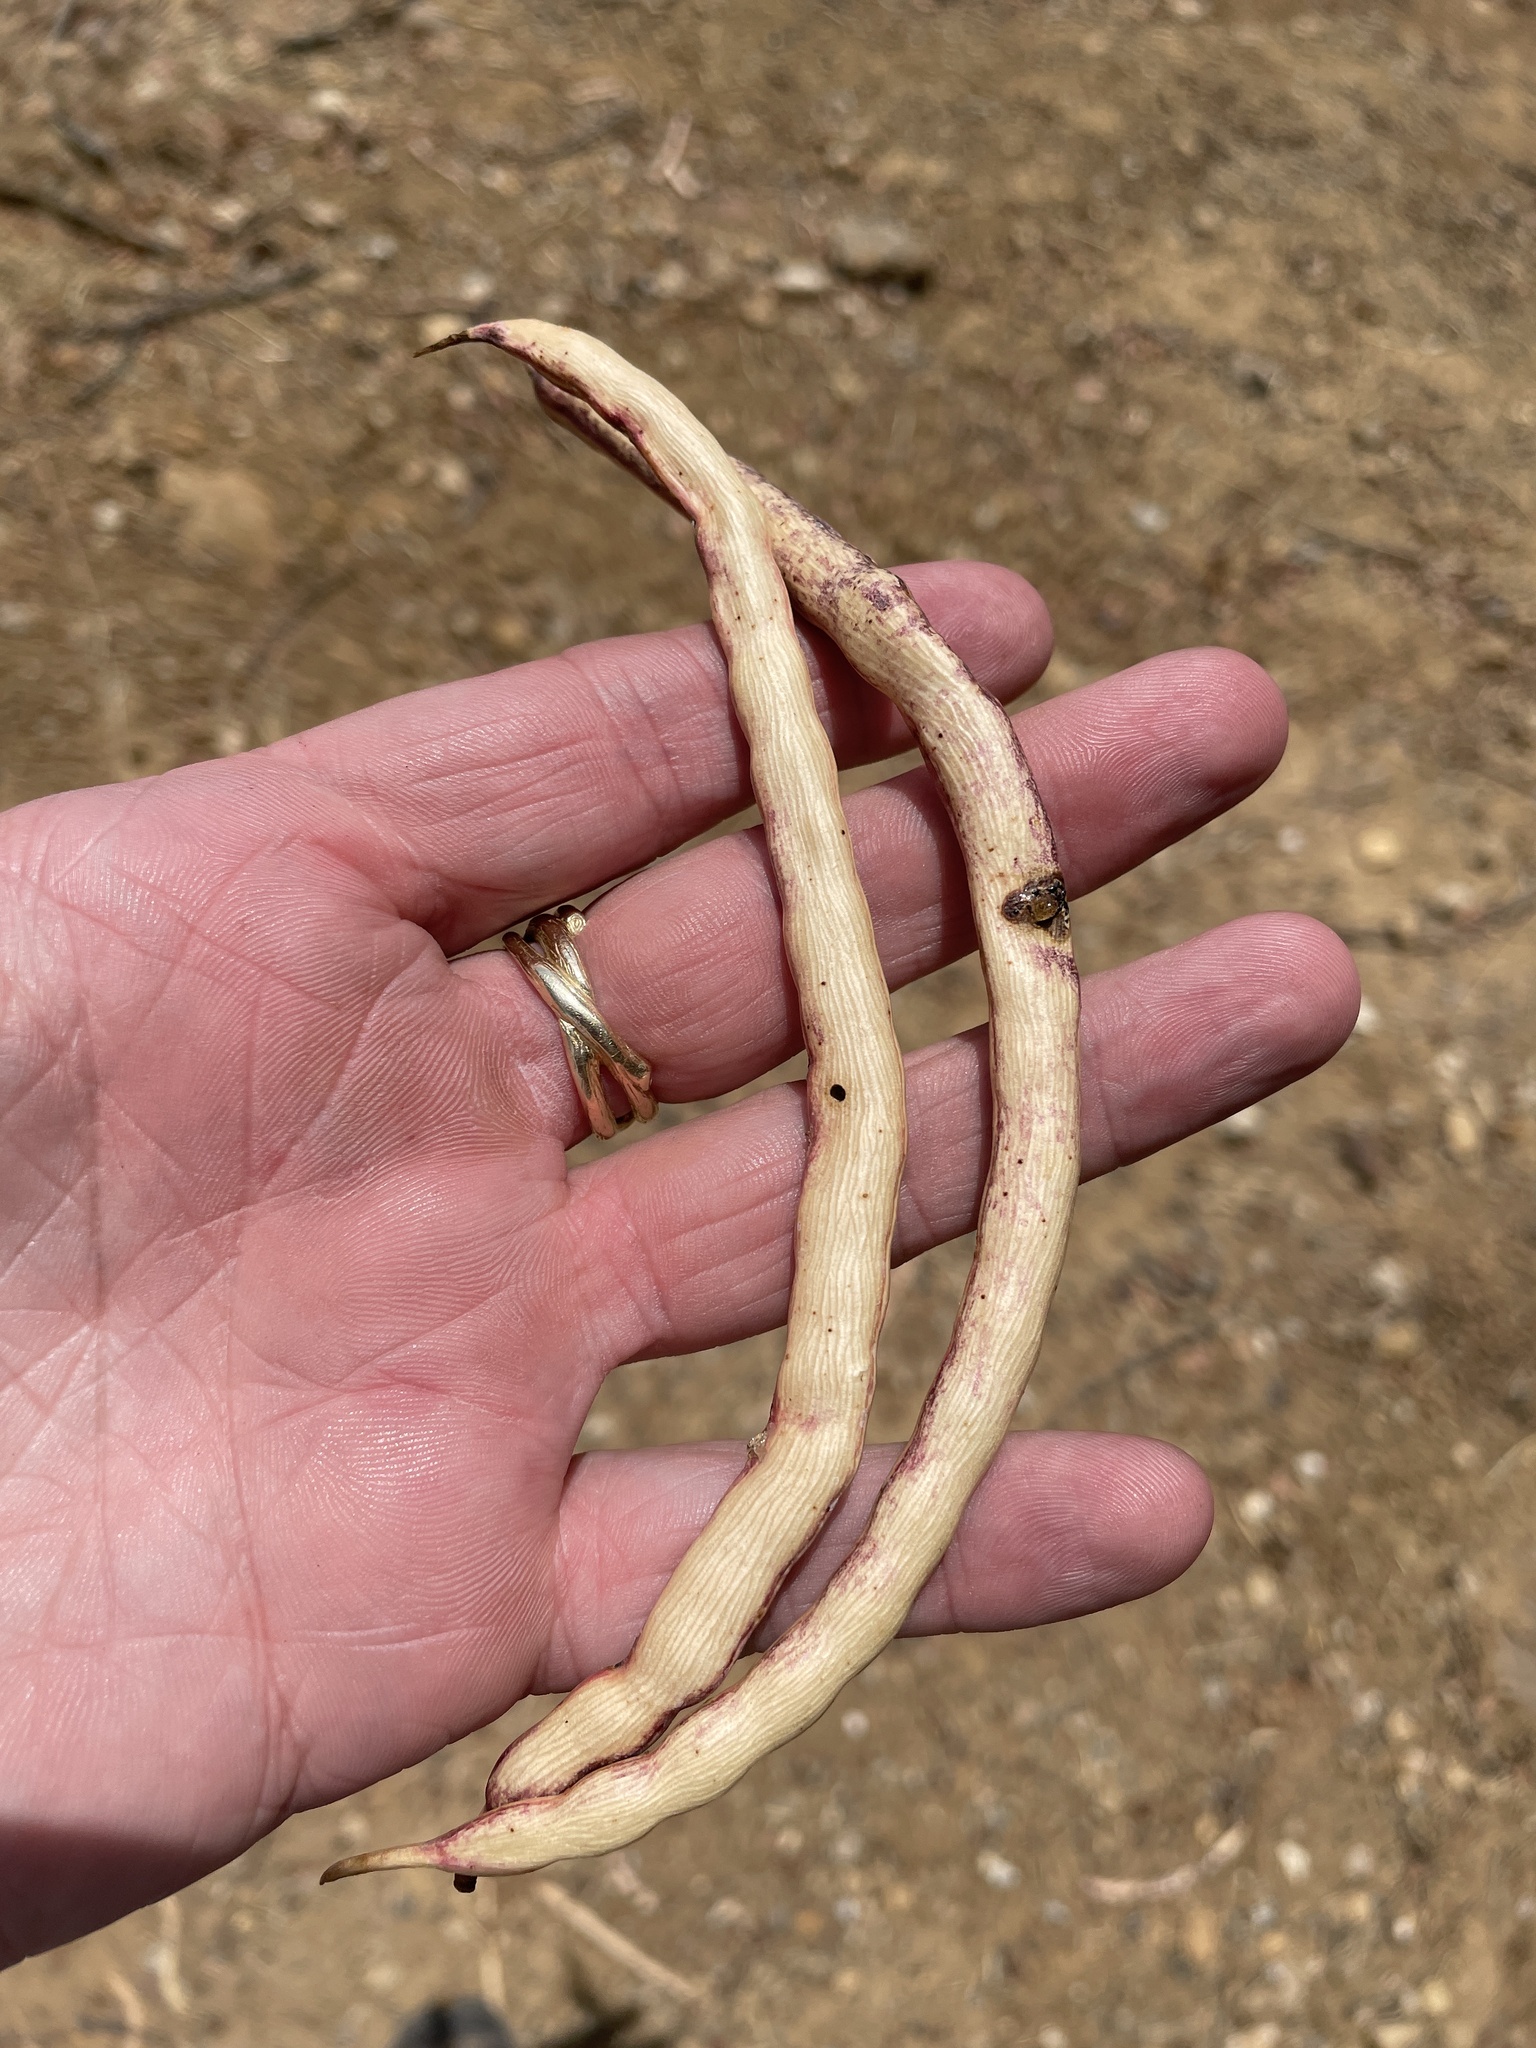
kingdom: Plantae
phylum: Tracheophyta
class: Magnoliopsida
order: Fabales
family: Fabaceae
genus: Prosopis
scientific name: Prosopis glandulosa
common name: Honey mesquite
